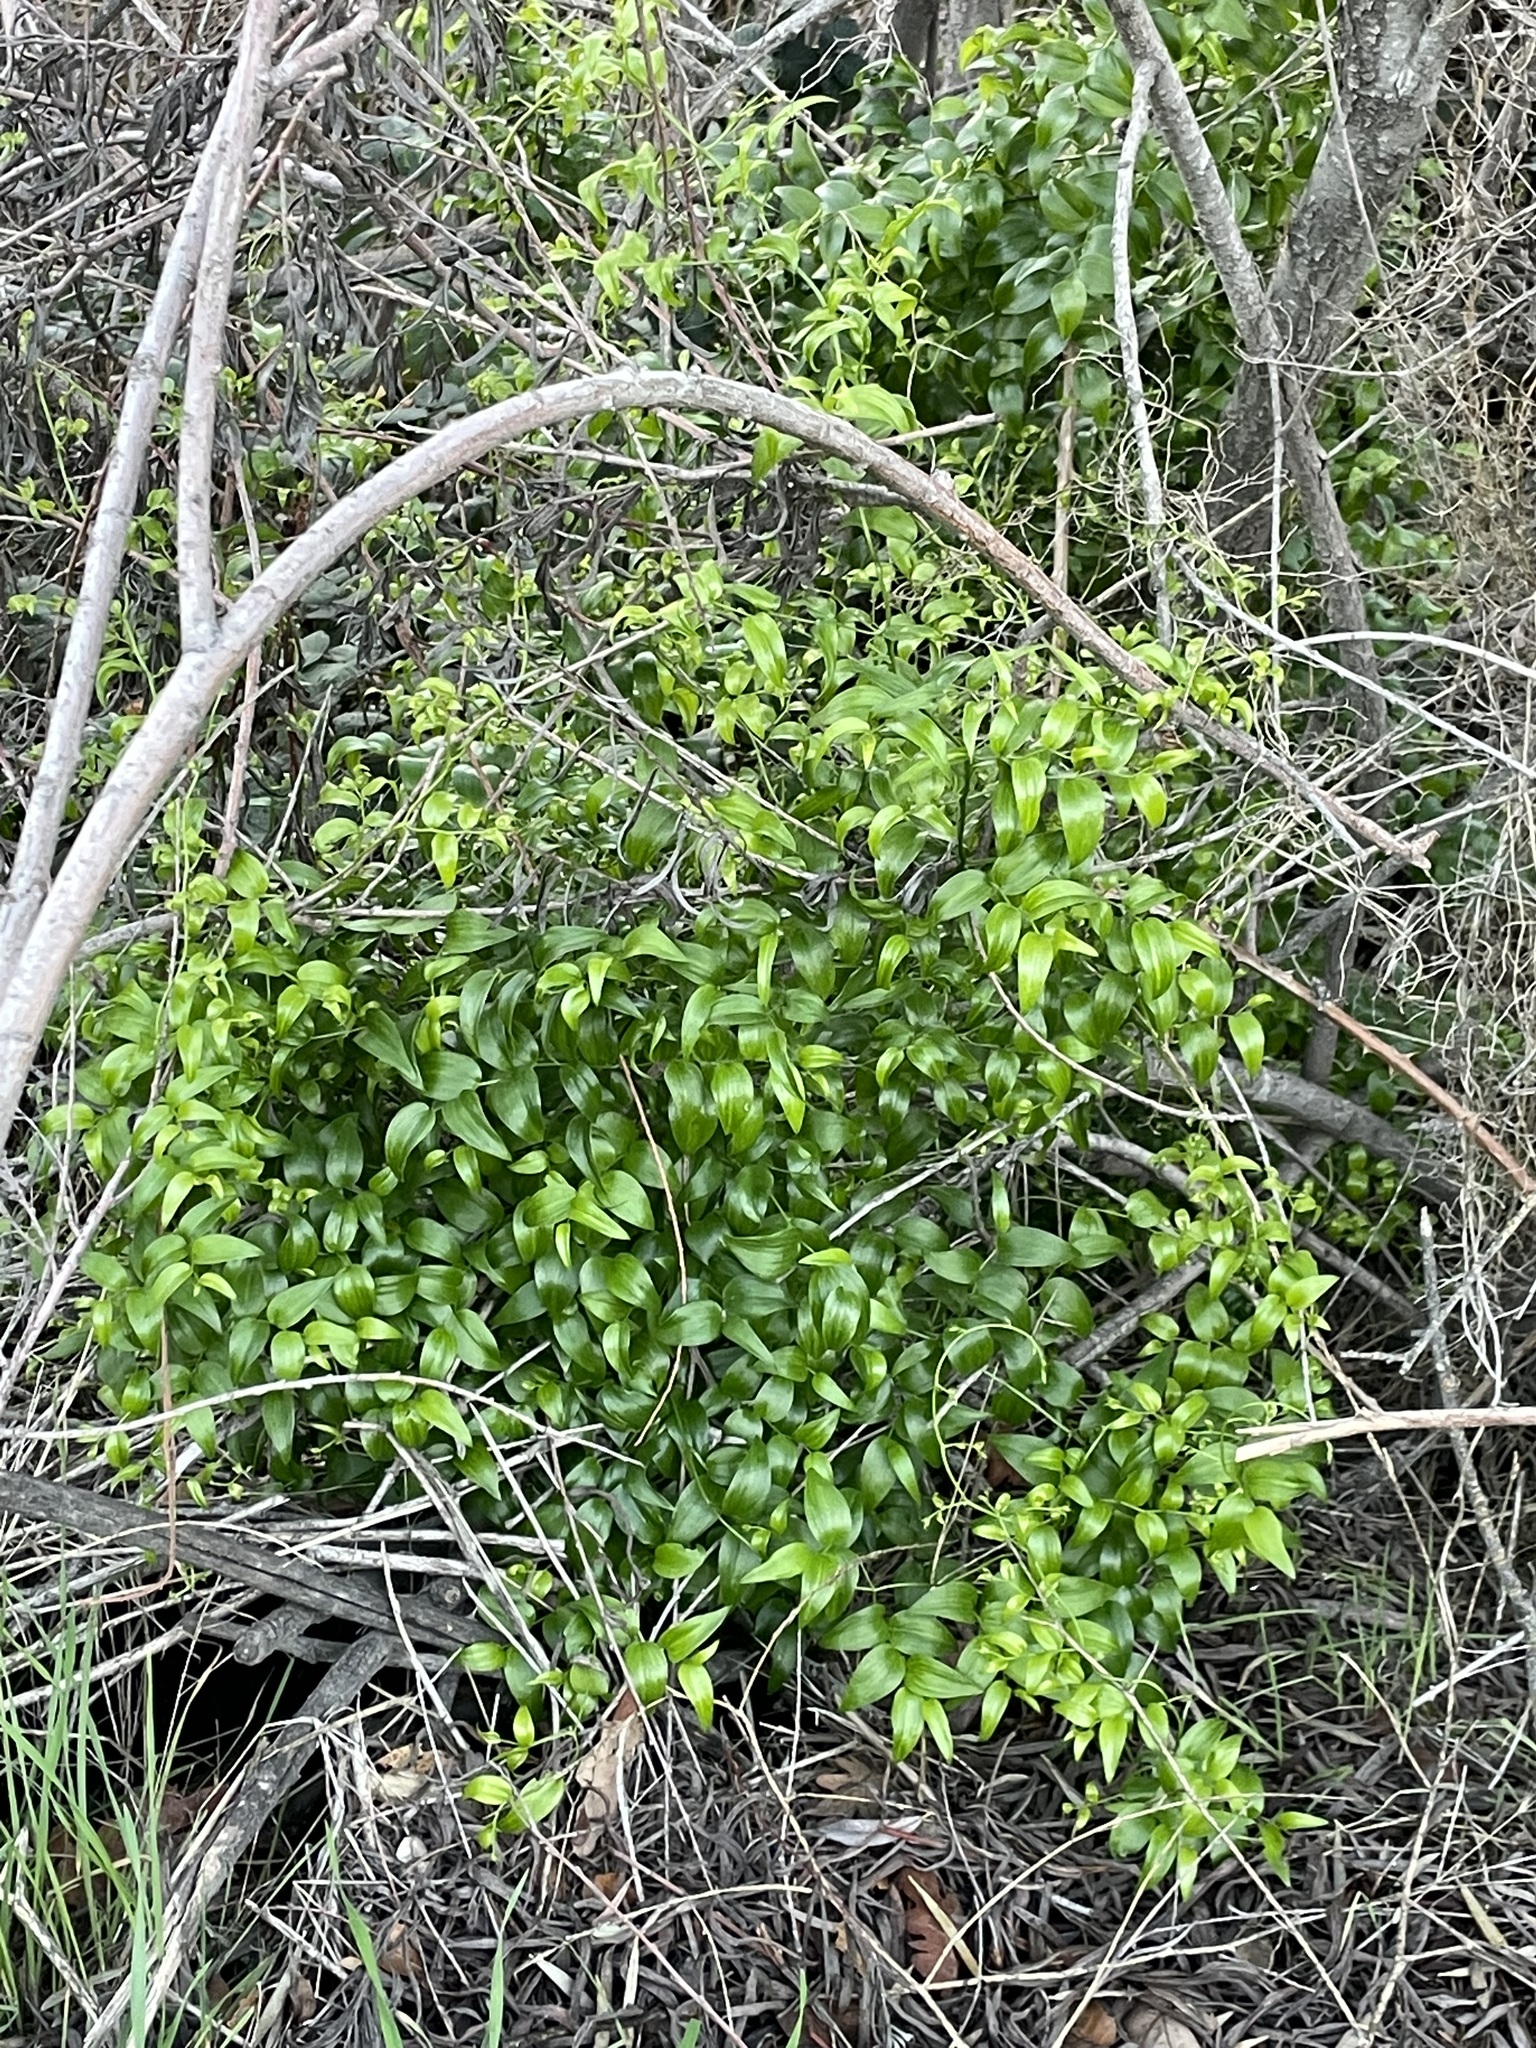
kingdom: Plantae
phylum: Tracheophyta
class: Liliopsida
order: Asparagales
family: Asparagaceae
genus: Asparagus
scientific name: Asparagus asparagoides
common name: African asparagus fern
